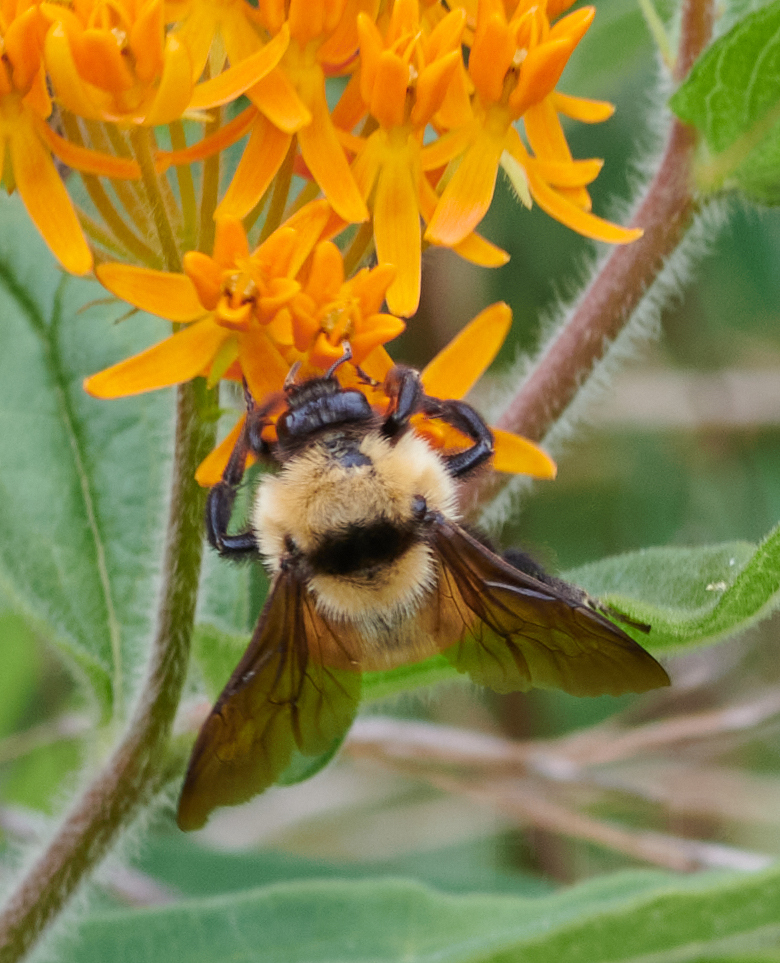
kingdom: Animalia
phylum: Arthropoda
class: Insecta
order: Hymenoptera
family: Apidae
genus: Bombus
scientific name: Bombus fervidus
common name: Yellow bumble bee
